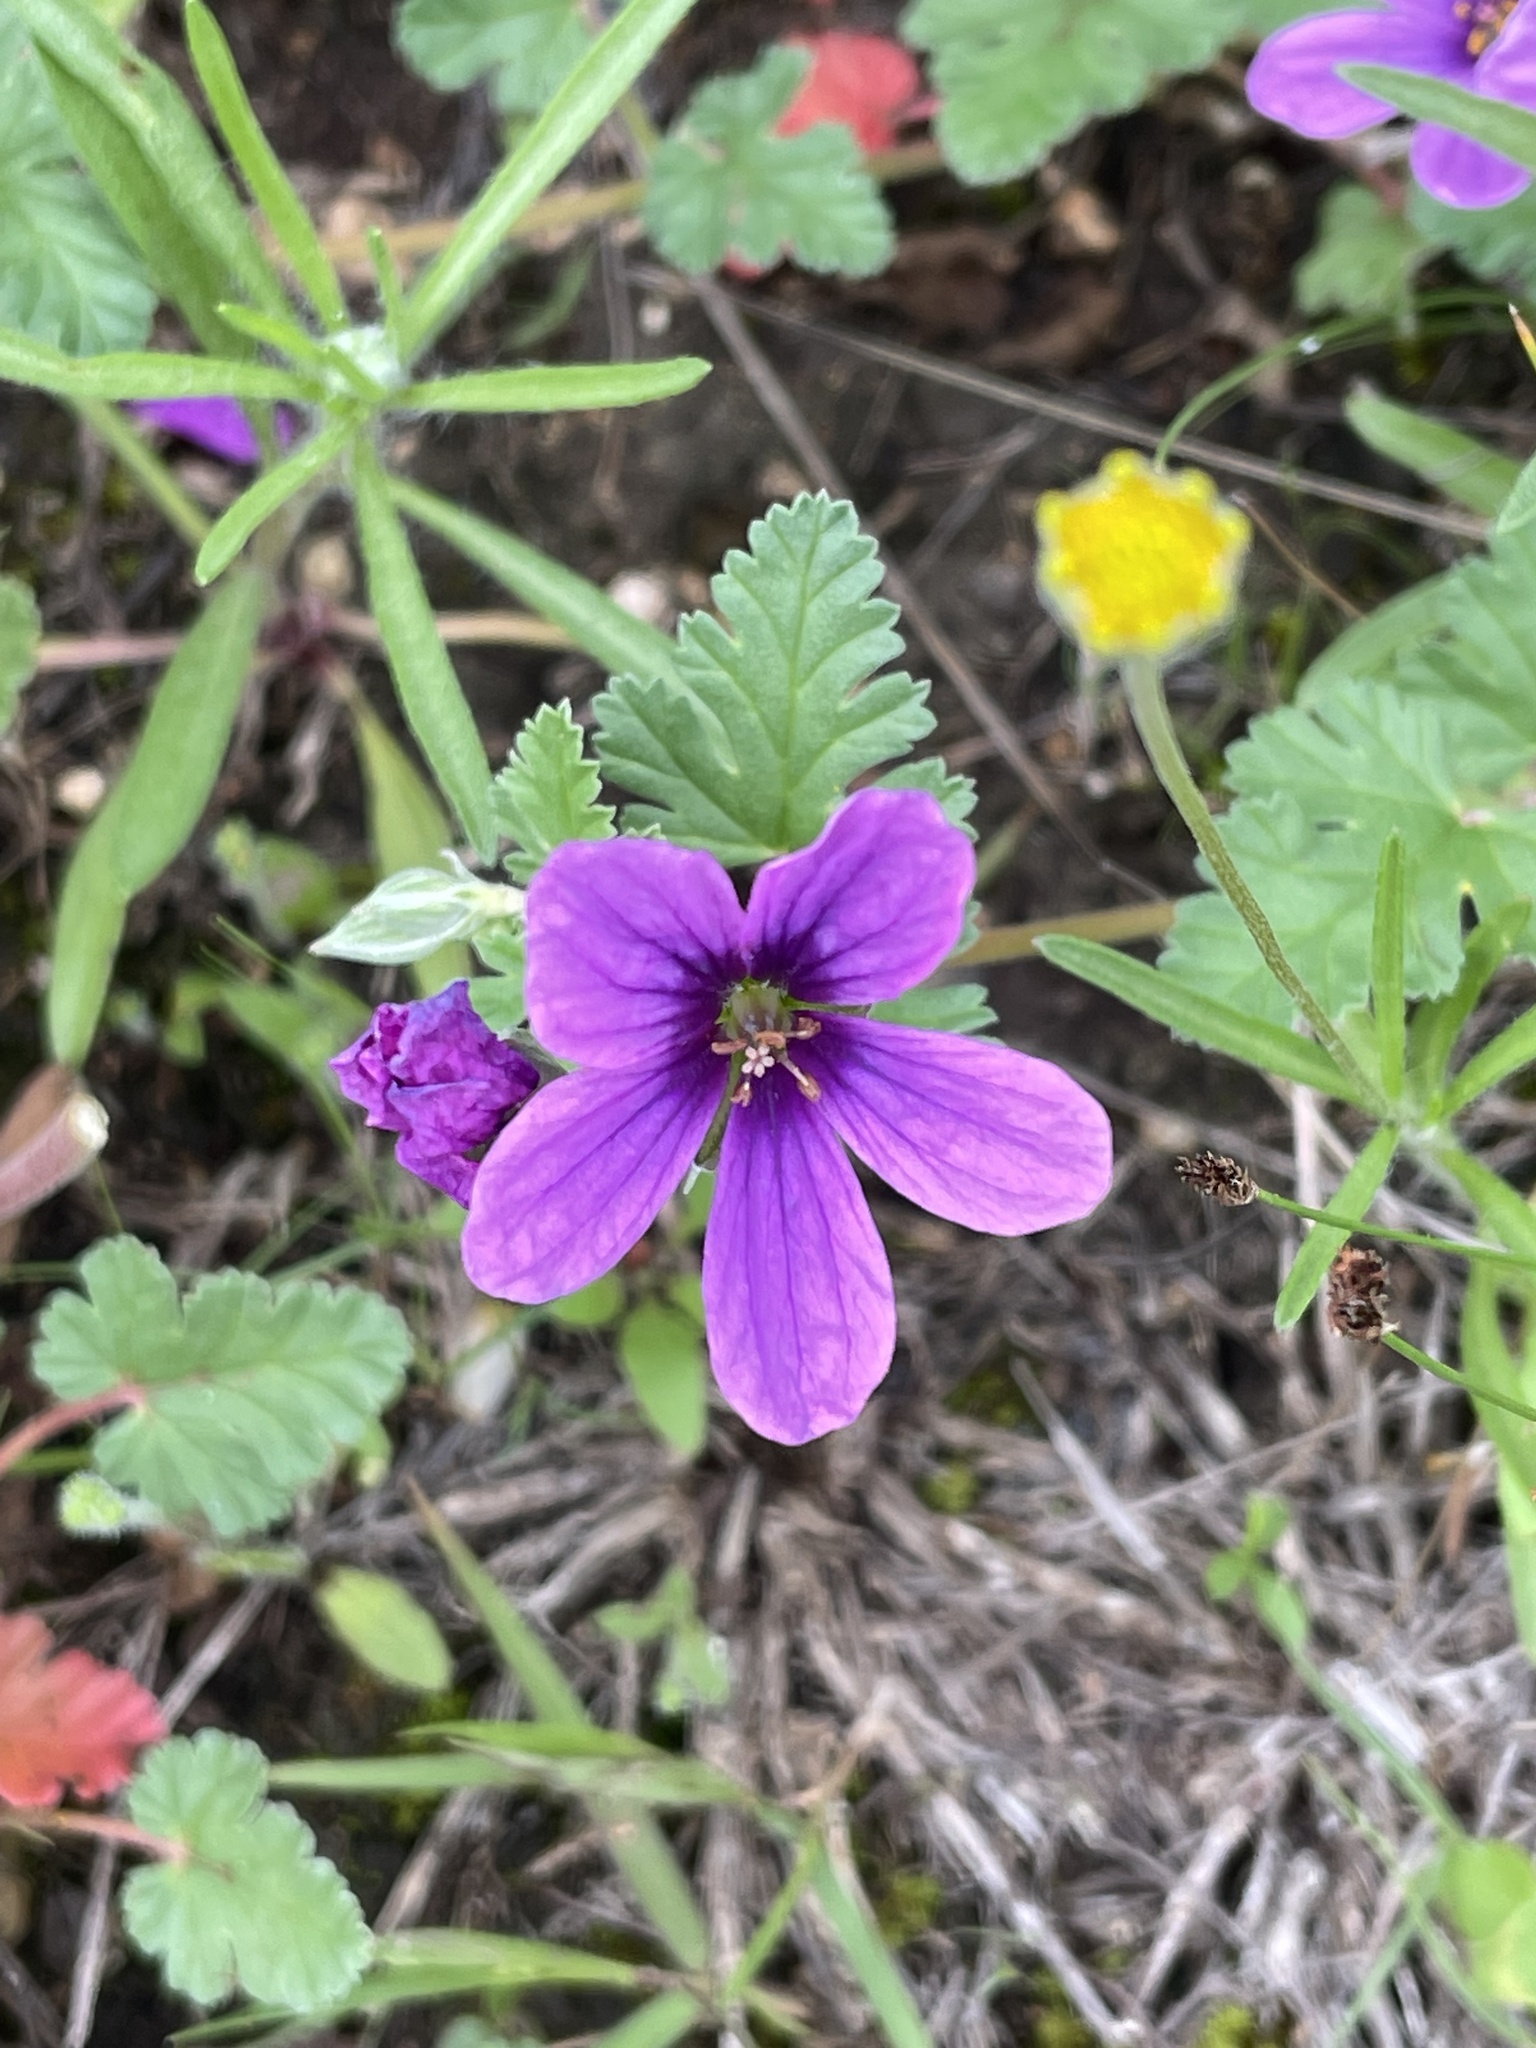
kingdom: Plantae
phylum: Tracheophyta
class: Magnoliopsida
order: Geraniales
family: Geraniaceae
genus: Erodium
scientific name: Erodium texanum
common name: Texas stork's-bill
